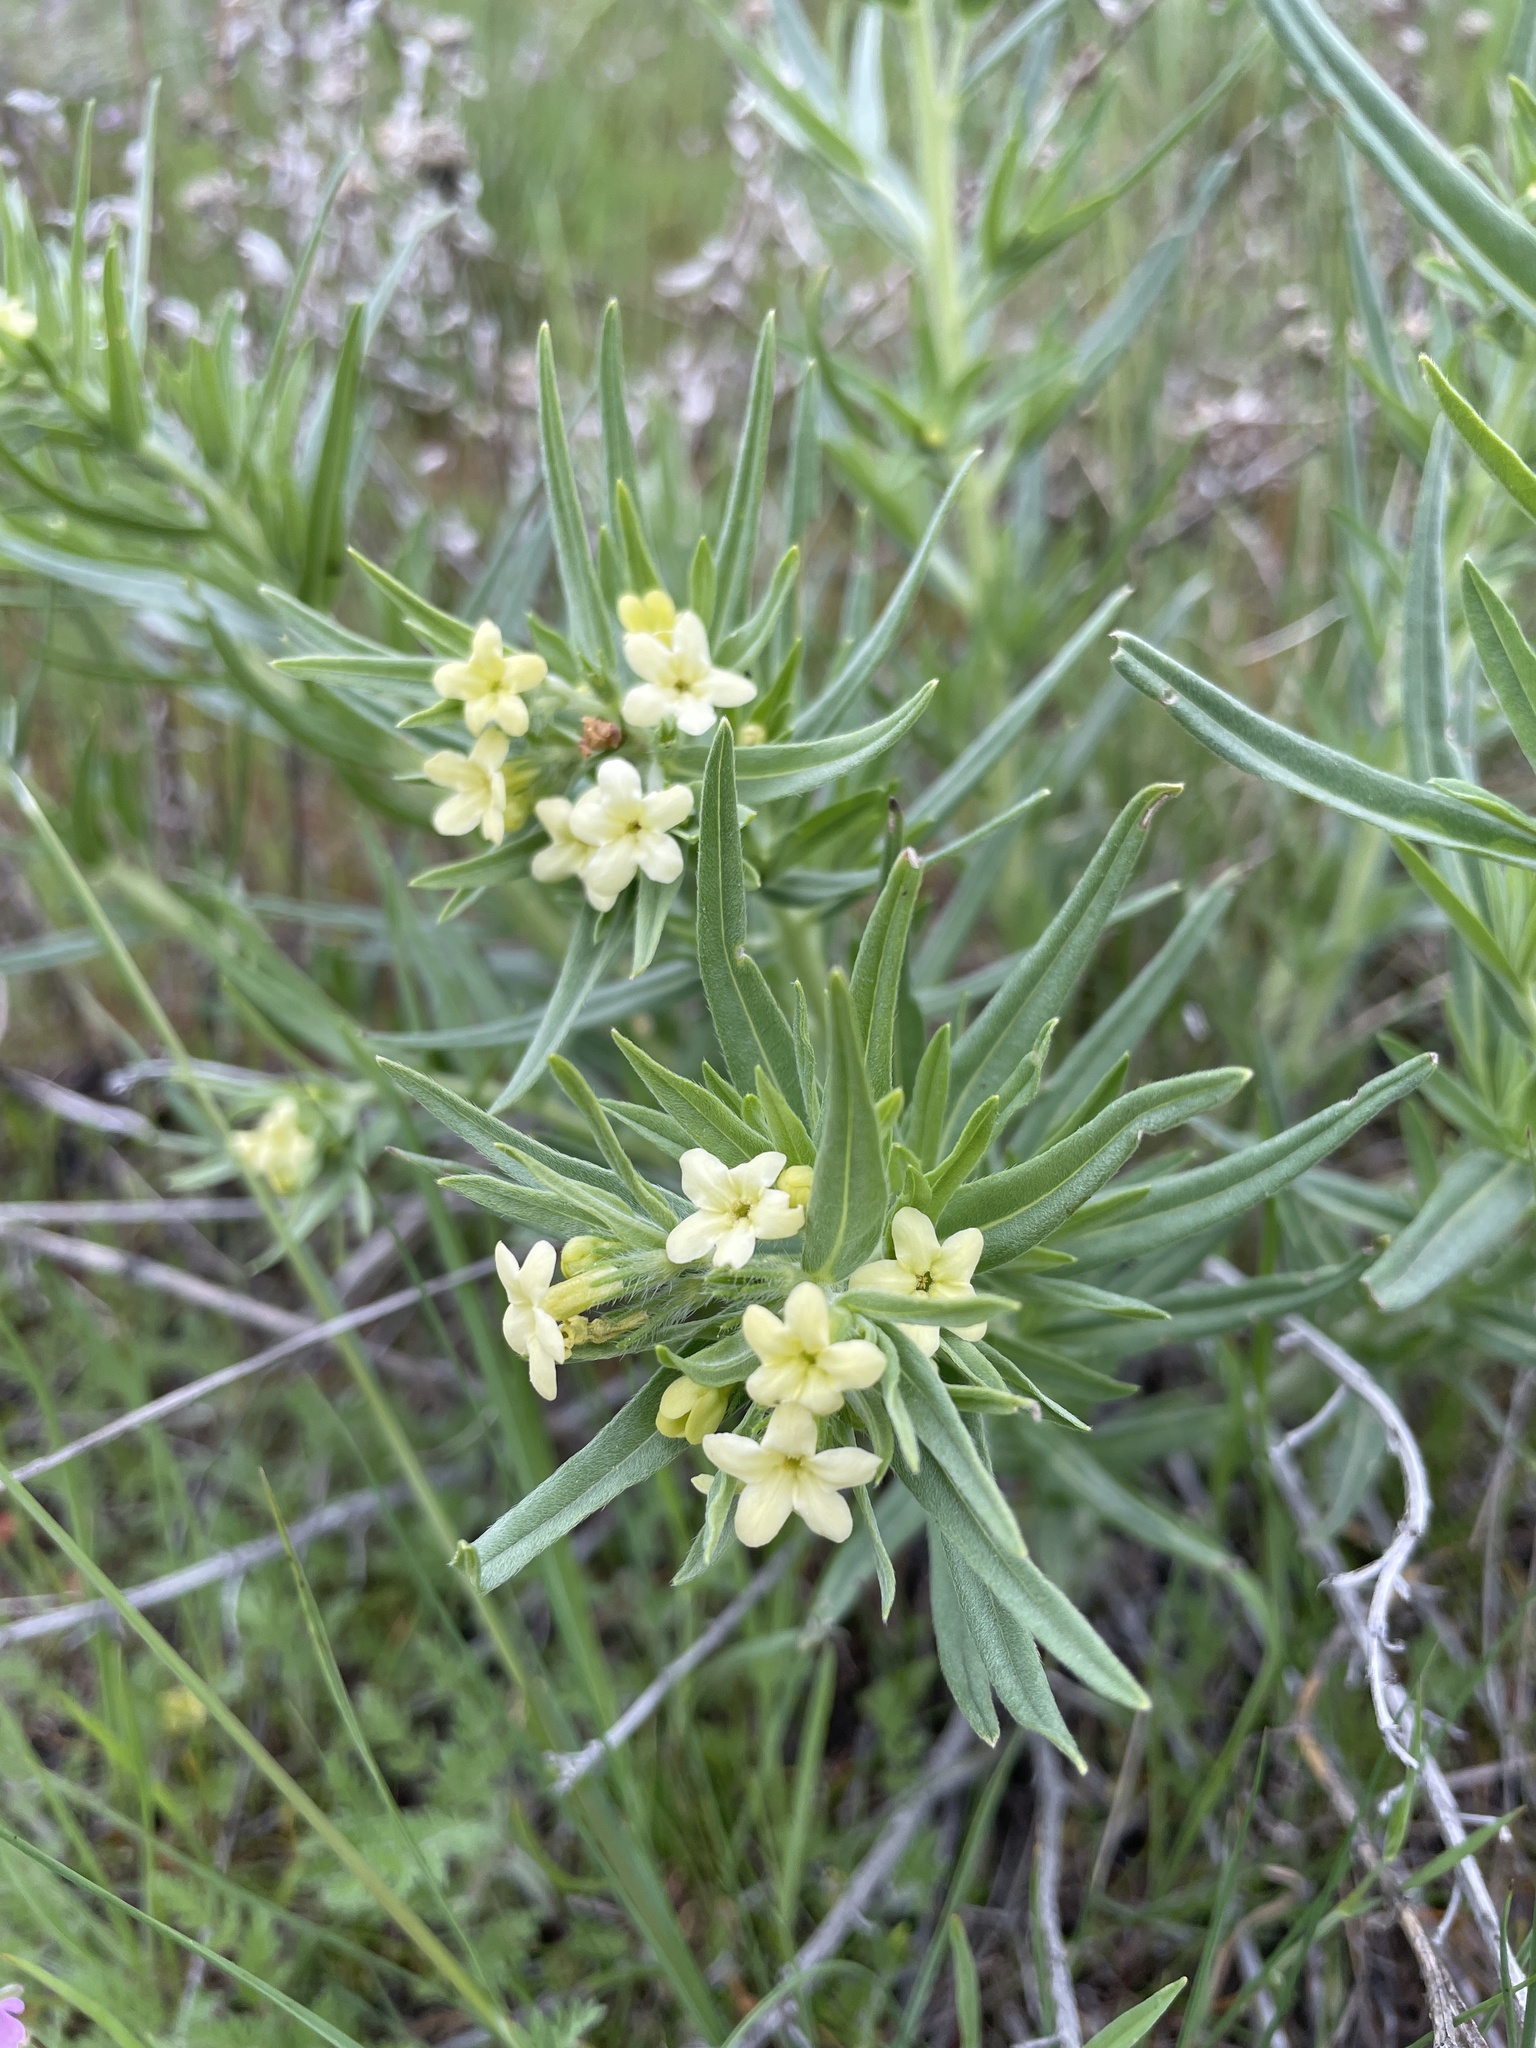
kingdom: Plantae
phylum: Tracheophyta
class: Magnoliopsida
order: Boraginales
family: Boraginaceae
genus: Lithospermum
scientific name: Lithospermum ruderale
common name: Western gromwell
